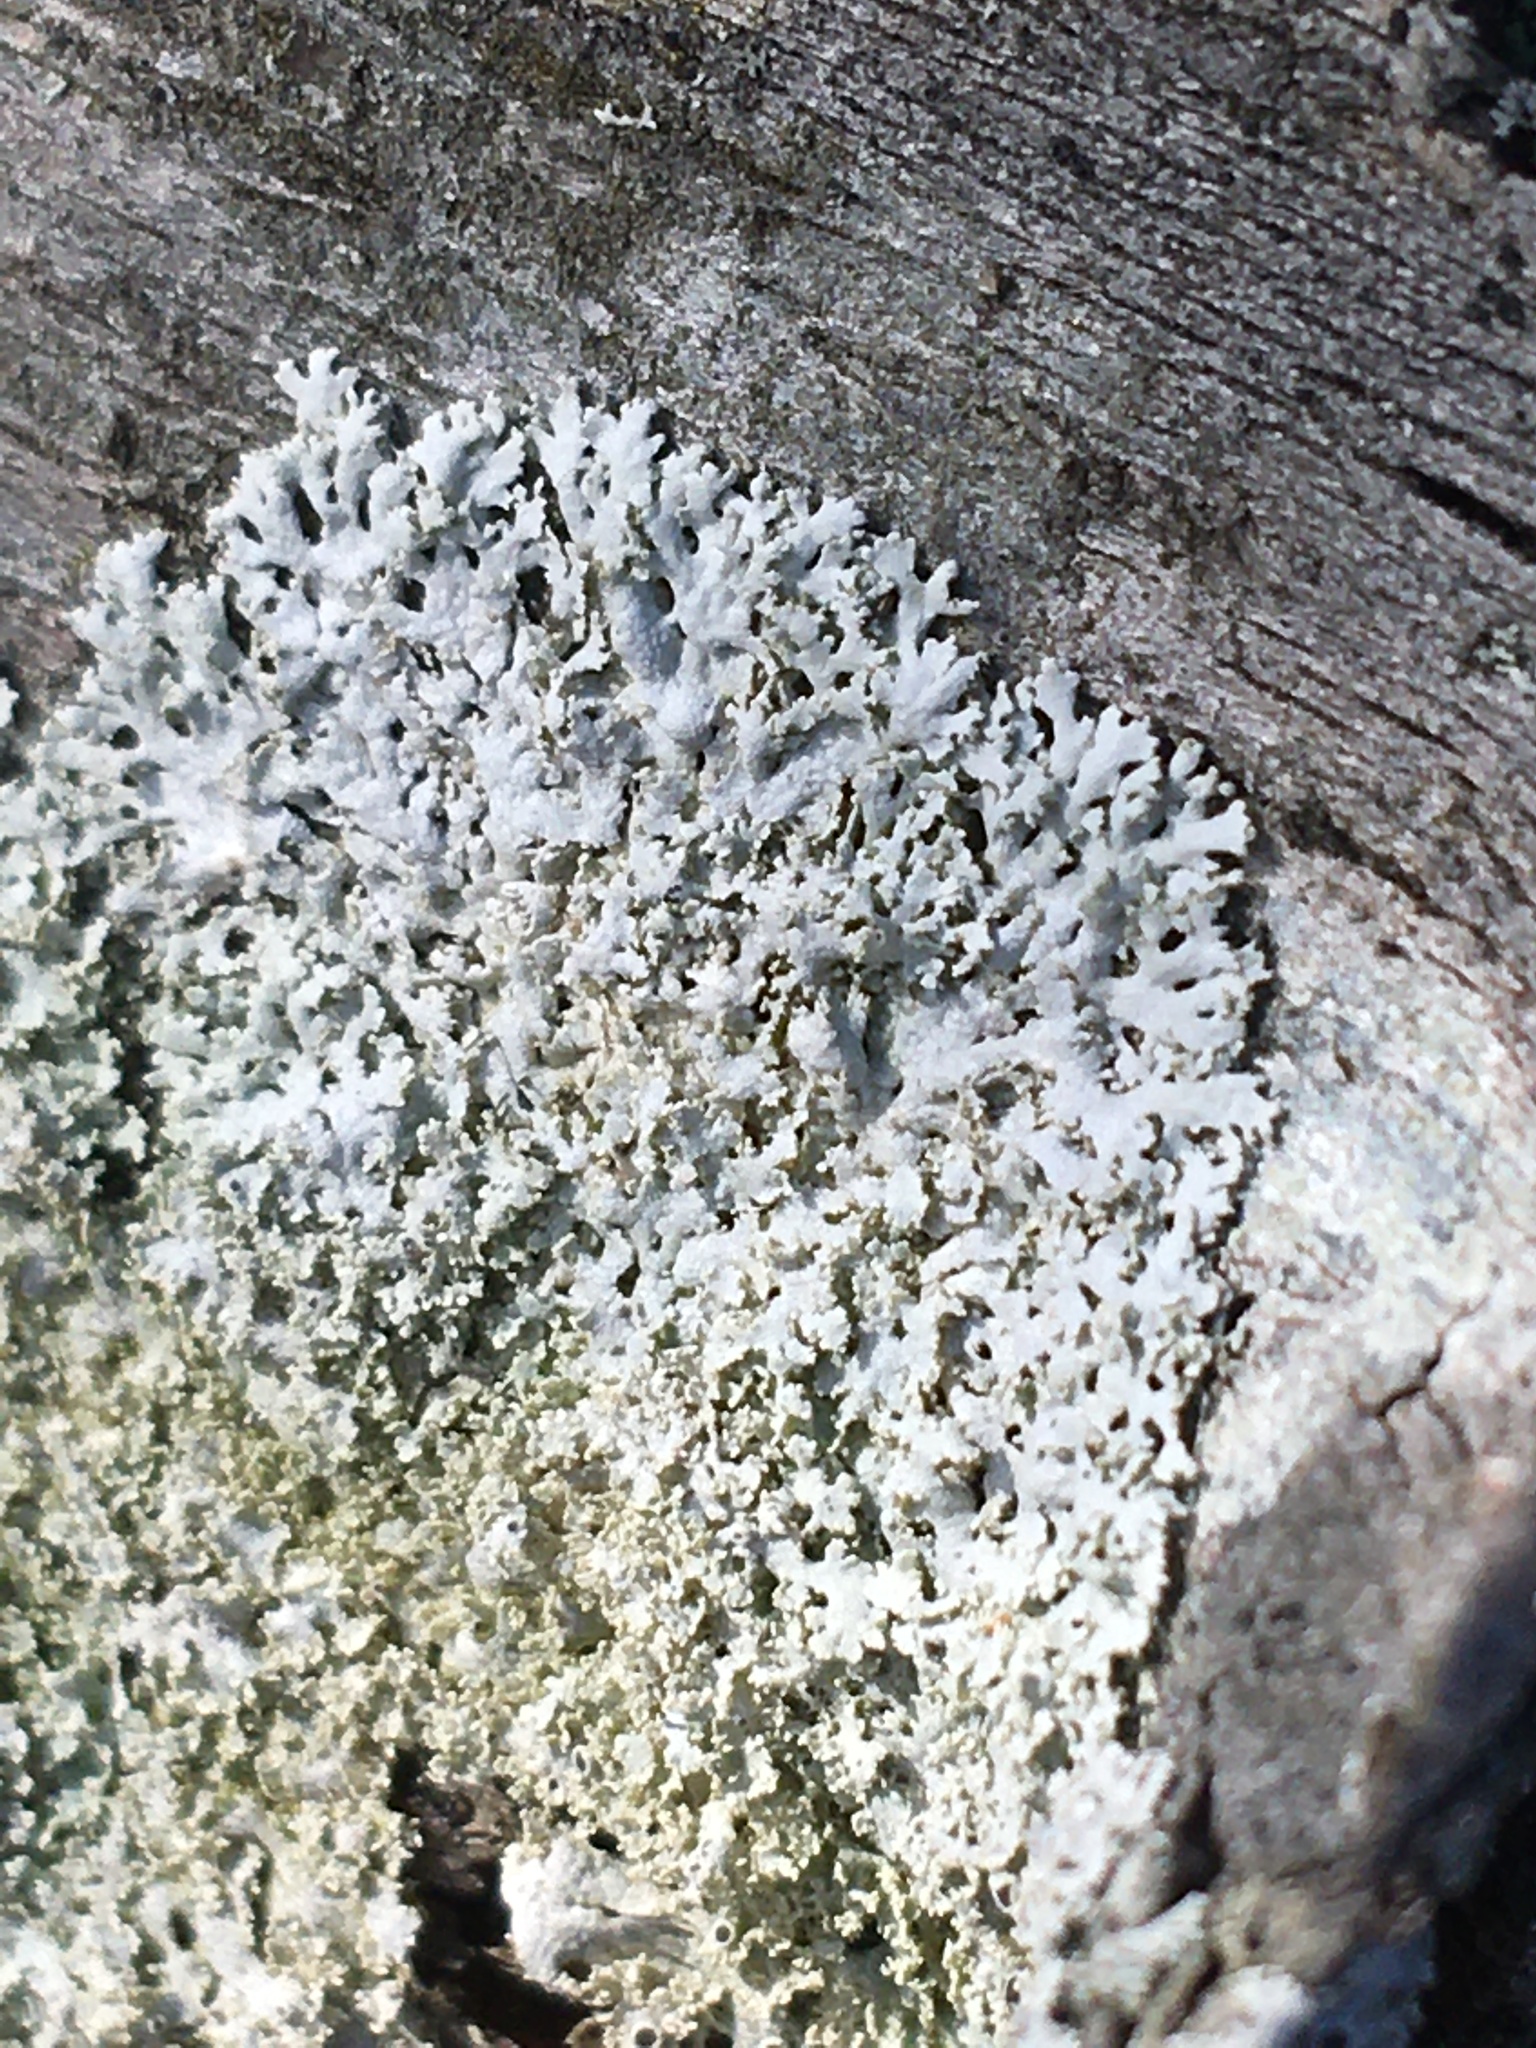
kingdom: Fungi
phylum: Ascomycota
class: Lecanoromycetes
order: Caliciales
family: Physciaceae
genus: Physcia
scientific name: Physcia millegrana
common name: Rosette lichen
